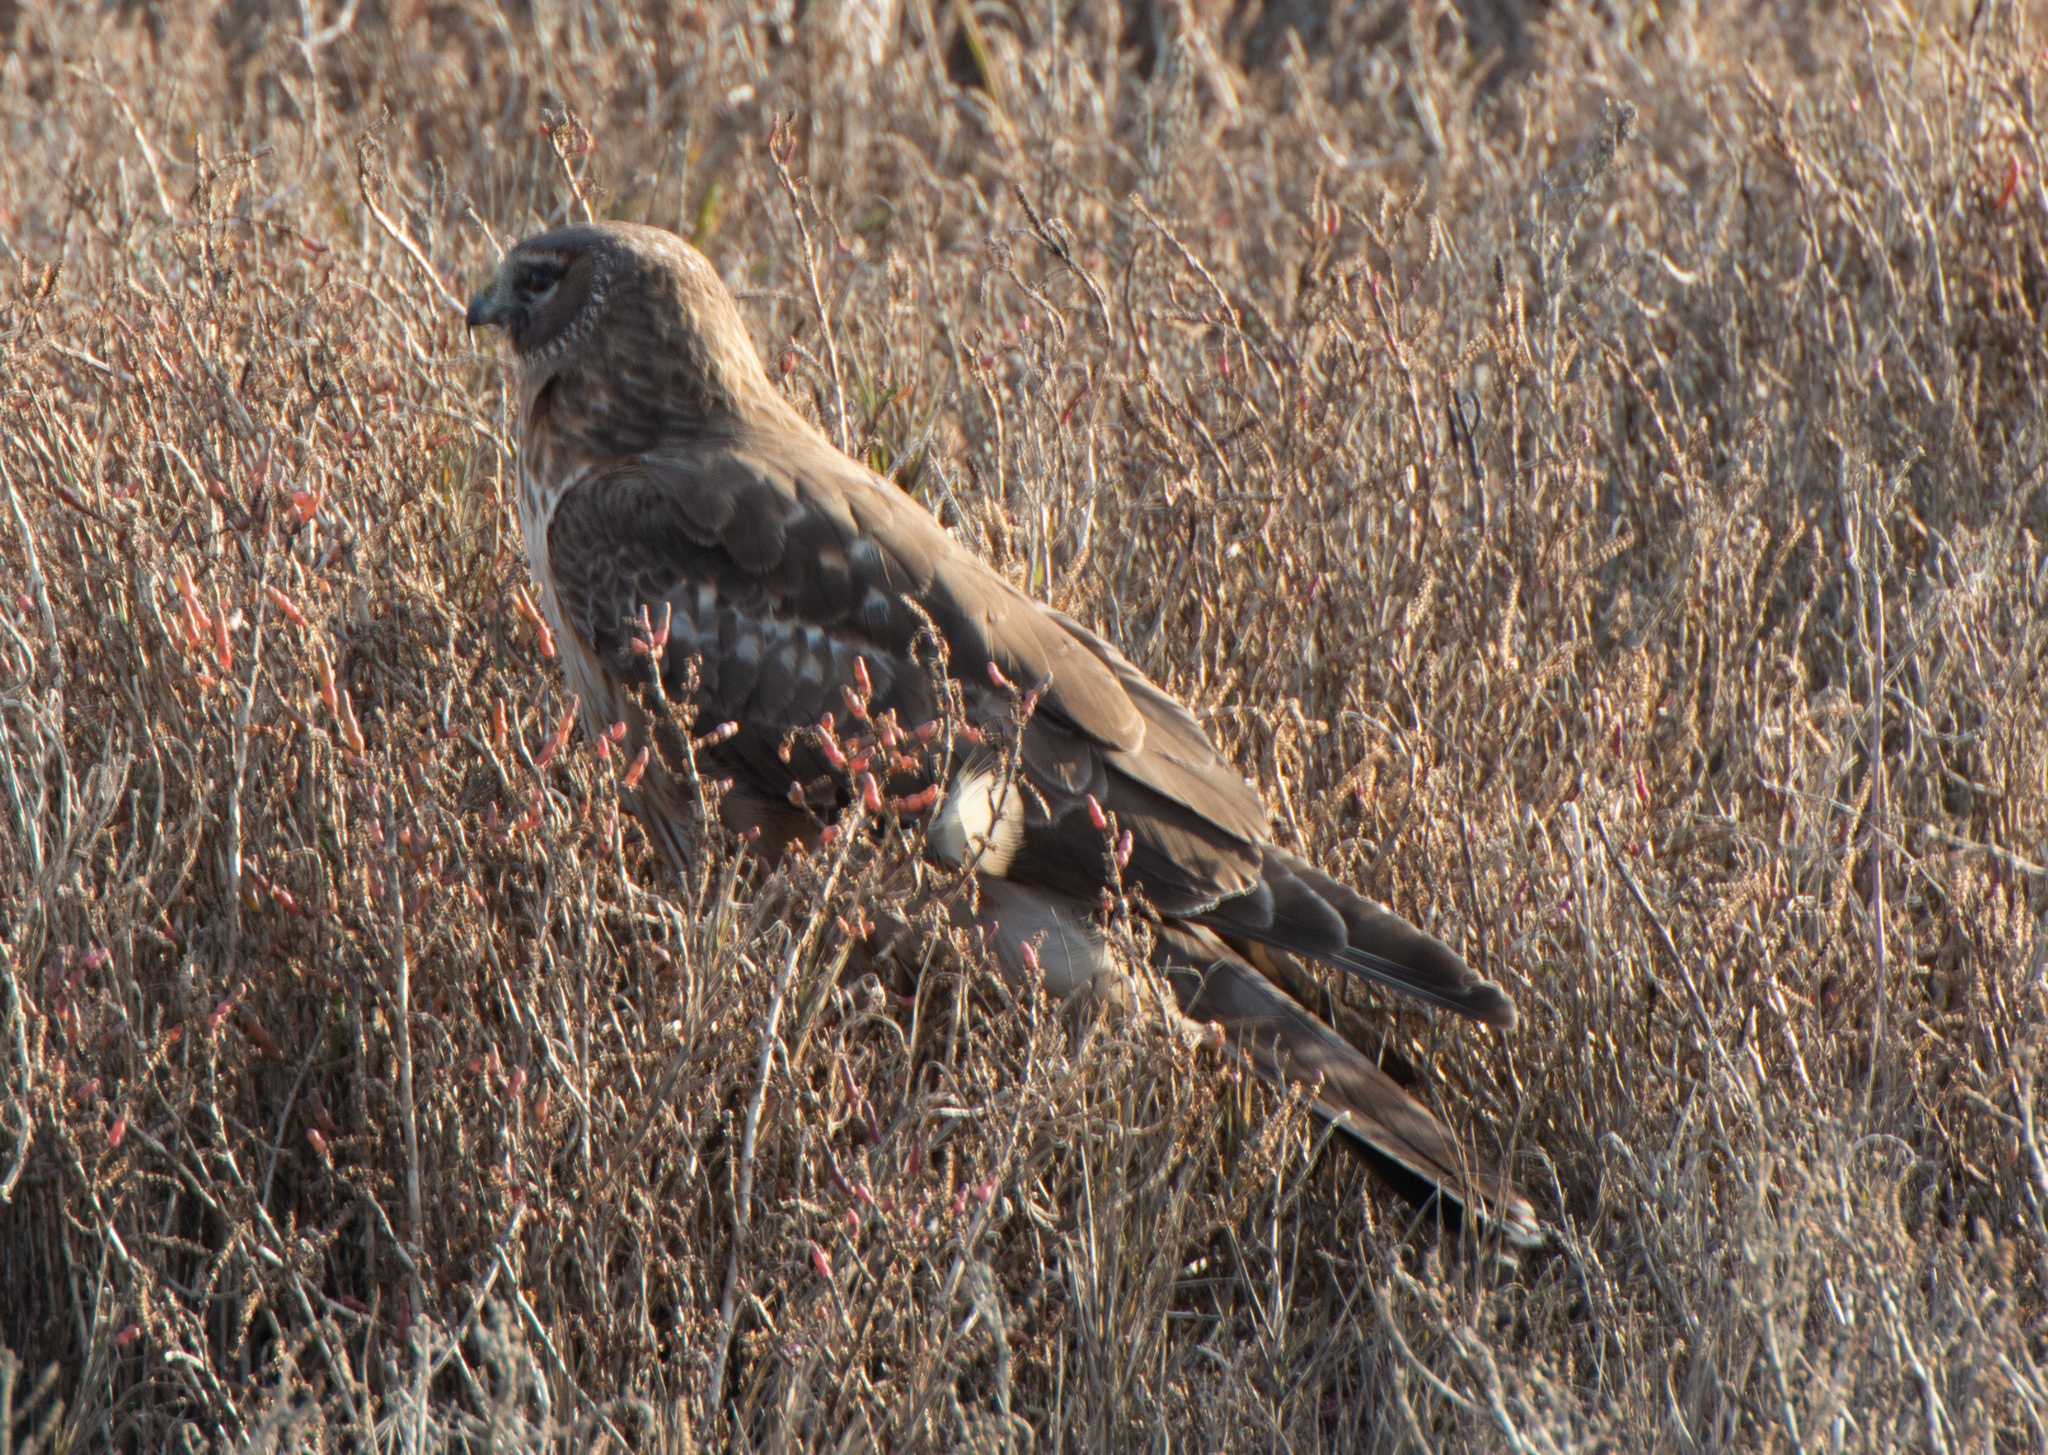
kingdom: Animalia
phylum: Chordata
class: Aves
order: Accipitriformes
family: Accipitridae
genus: Circus
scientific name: Circus cyaneus
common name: Hen harrier
